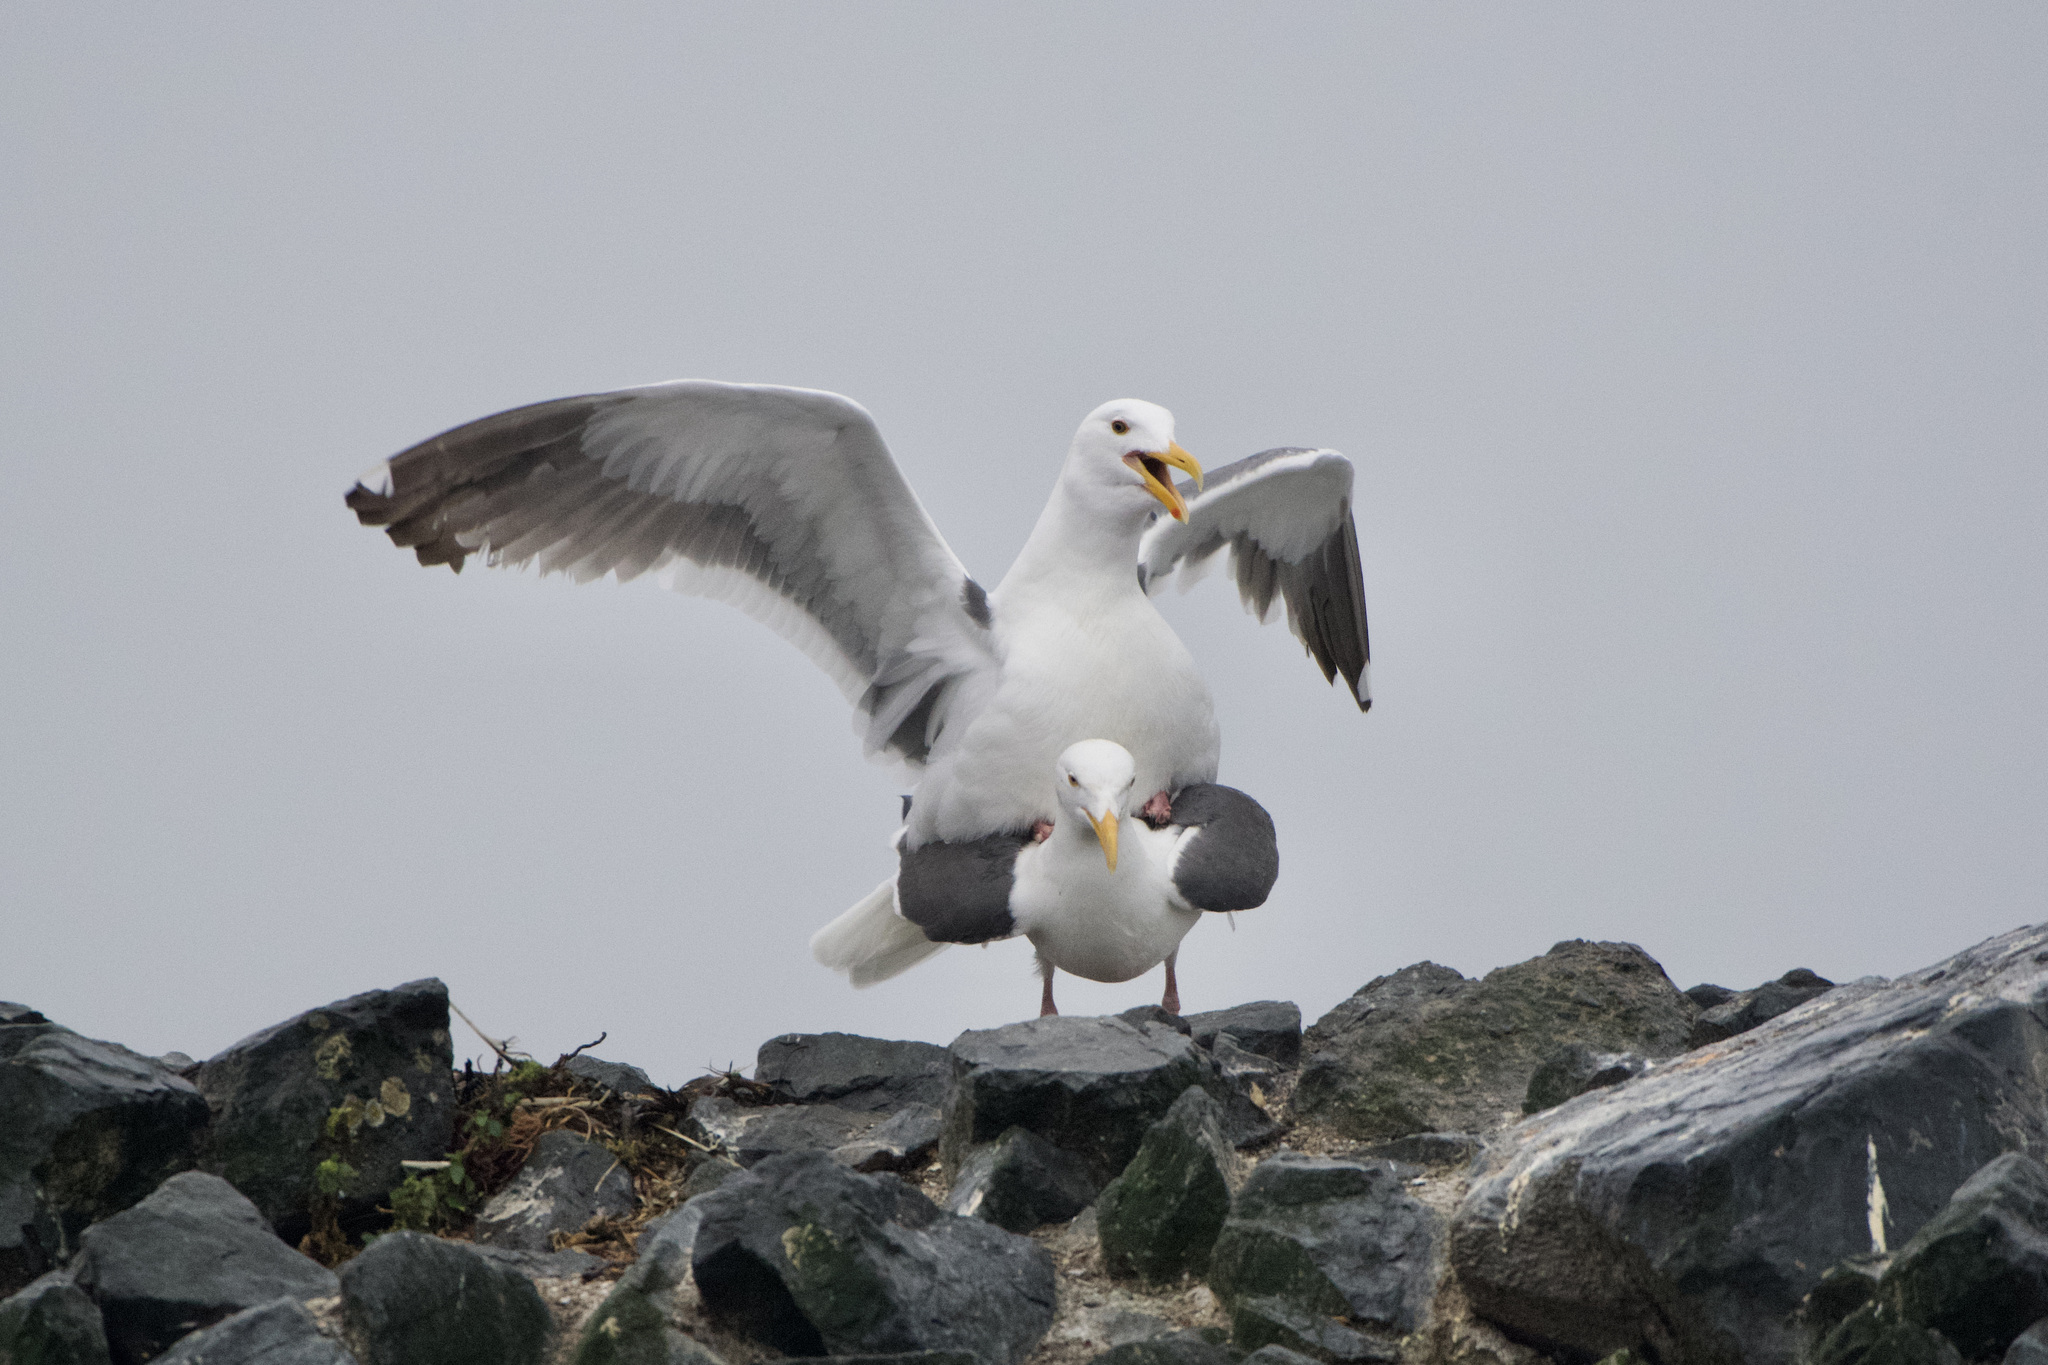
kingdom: Animalia
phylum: Chordata
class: Aves
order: Charadriiformes
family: Laridae
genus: Larus
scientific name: Larus occidentalis
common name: Western gull
